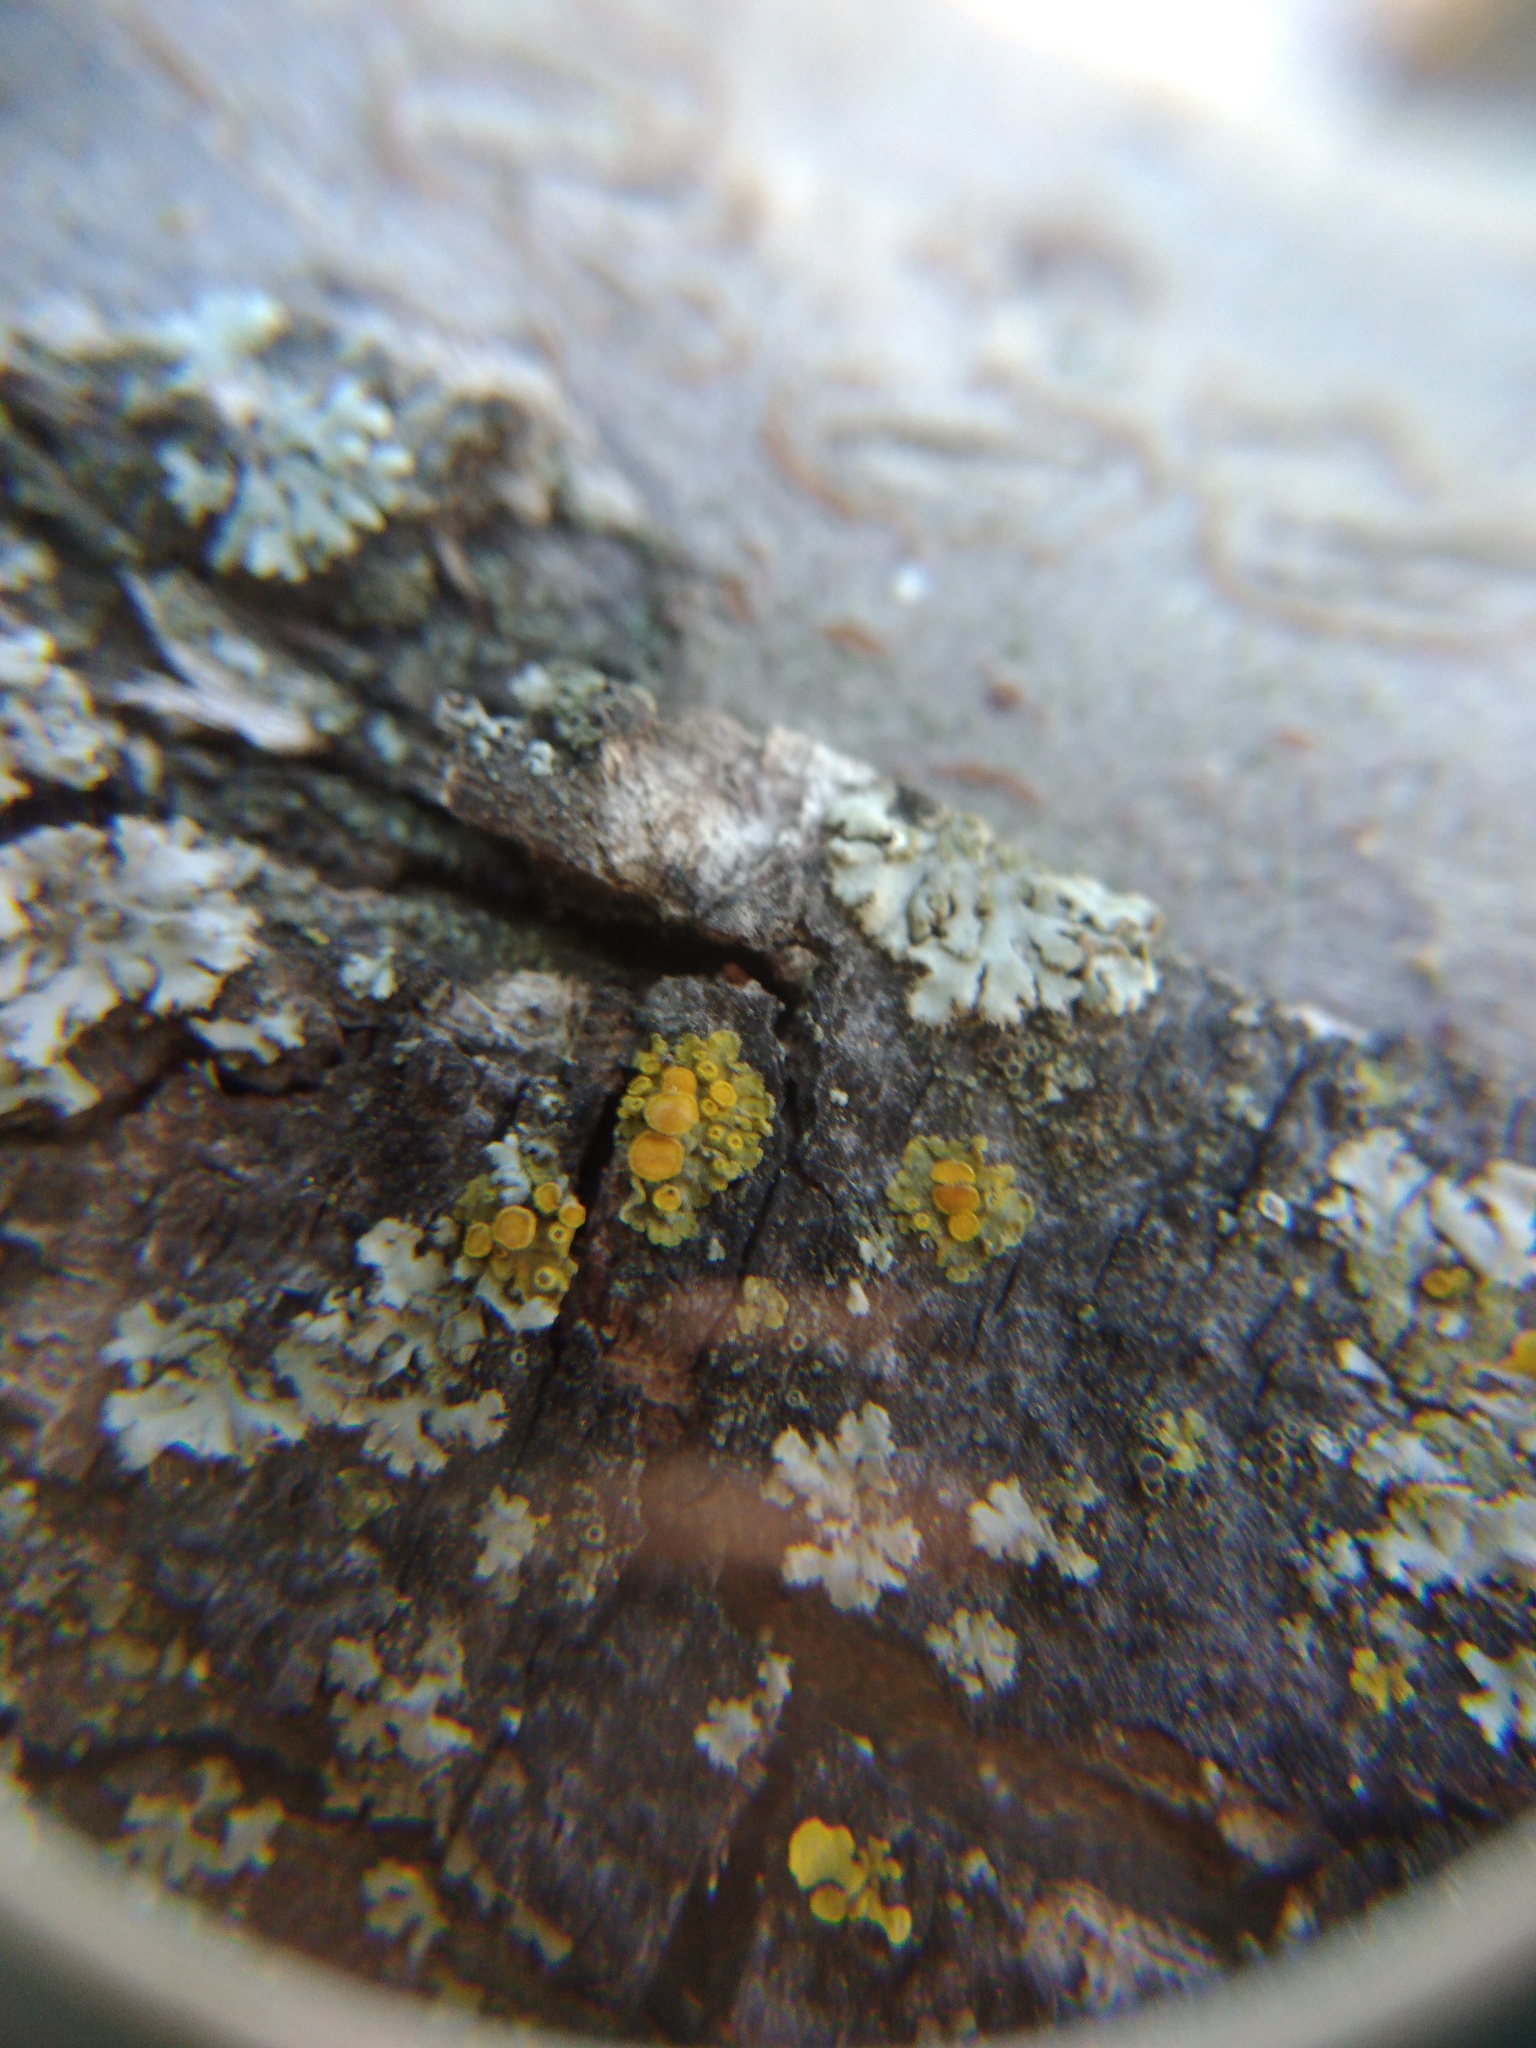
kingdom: Fungi
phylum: Ascomycota
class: Lecanoromycetes
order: Teloschistales
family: Teloschistaceae
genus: Seawardiella
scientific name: Seawardiella lobulata
